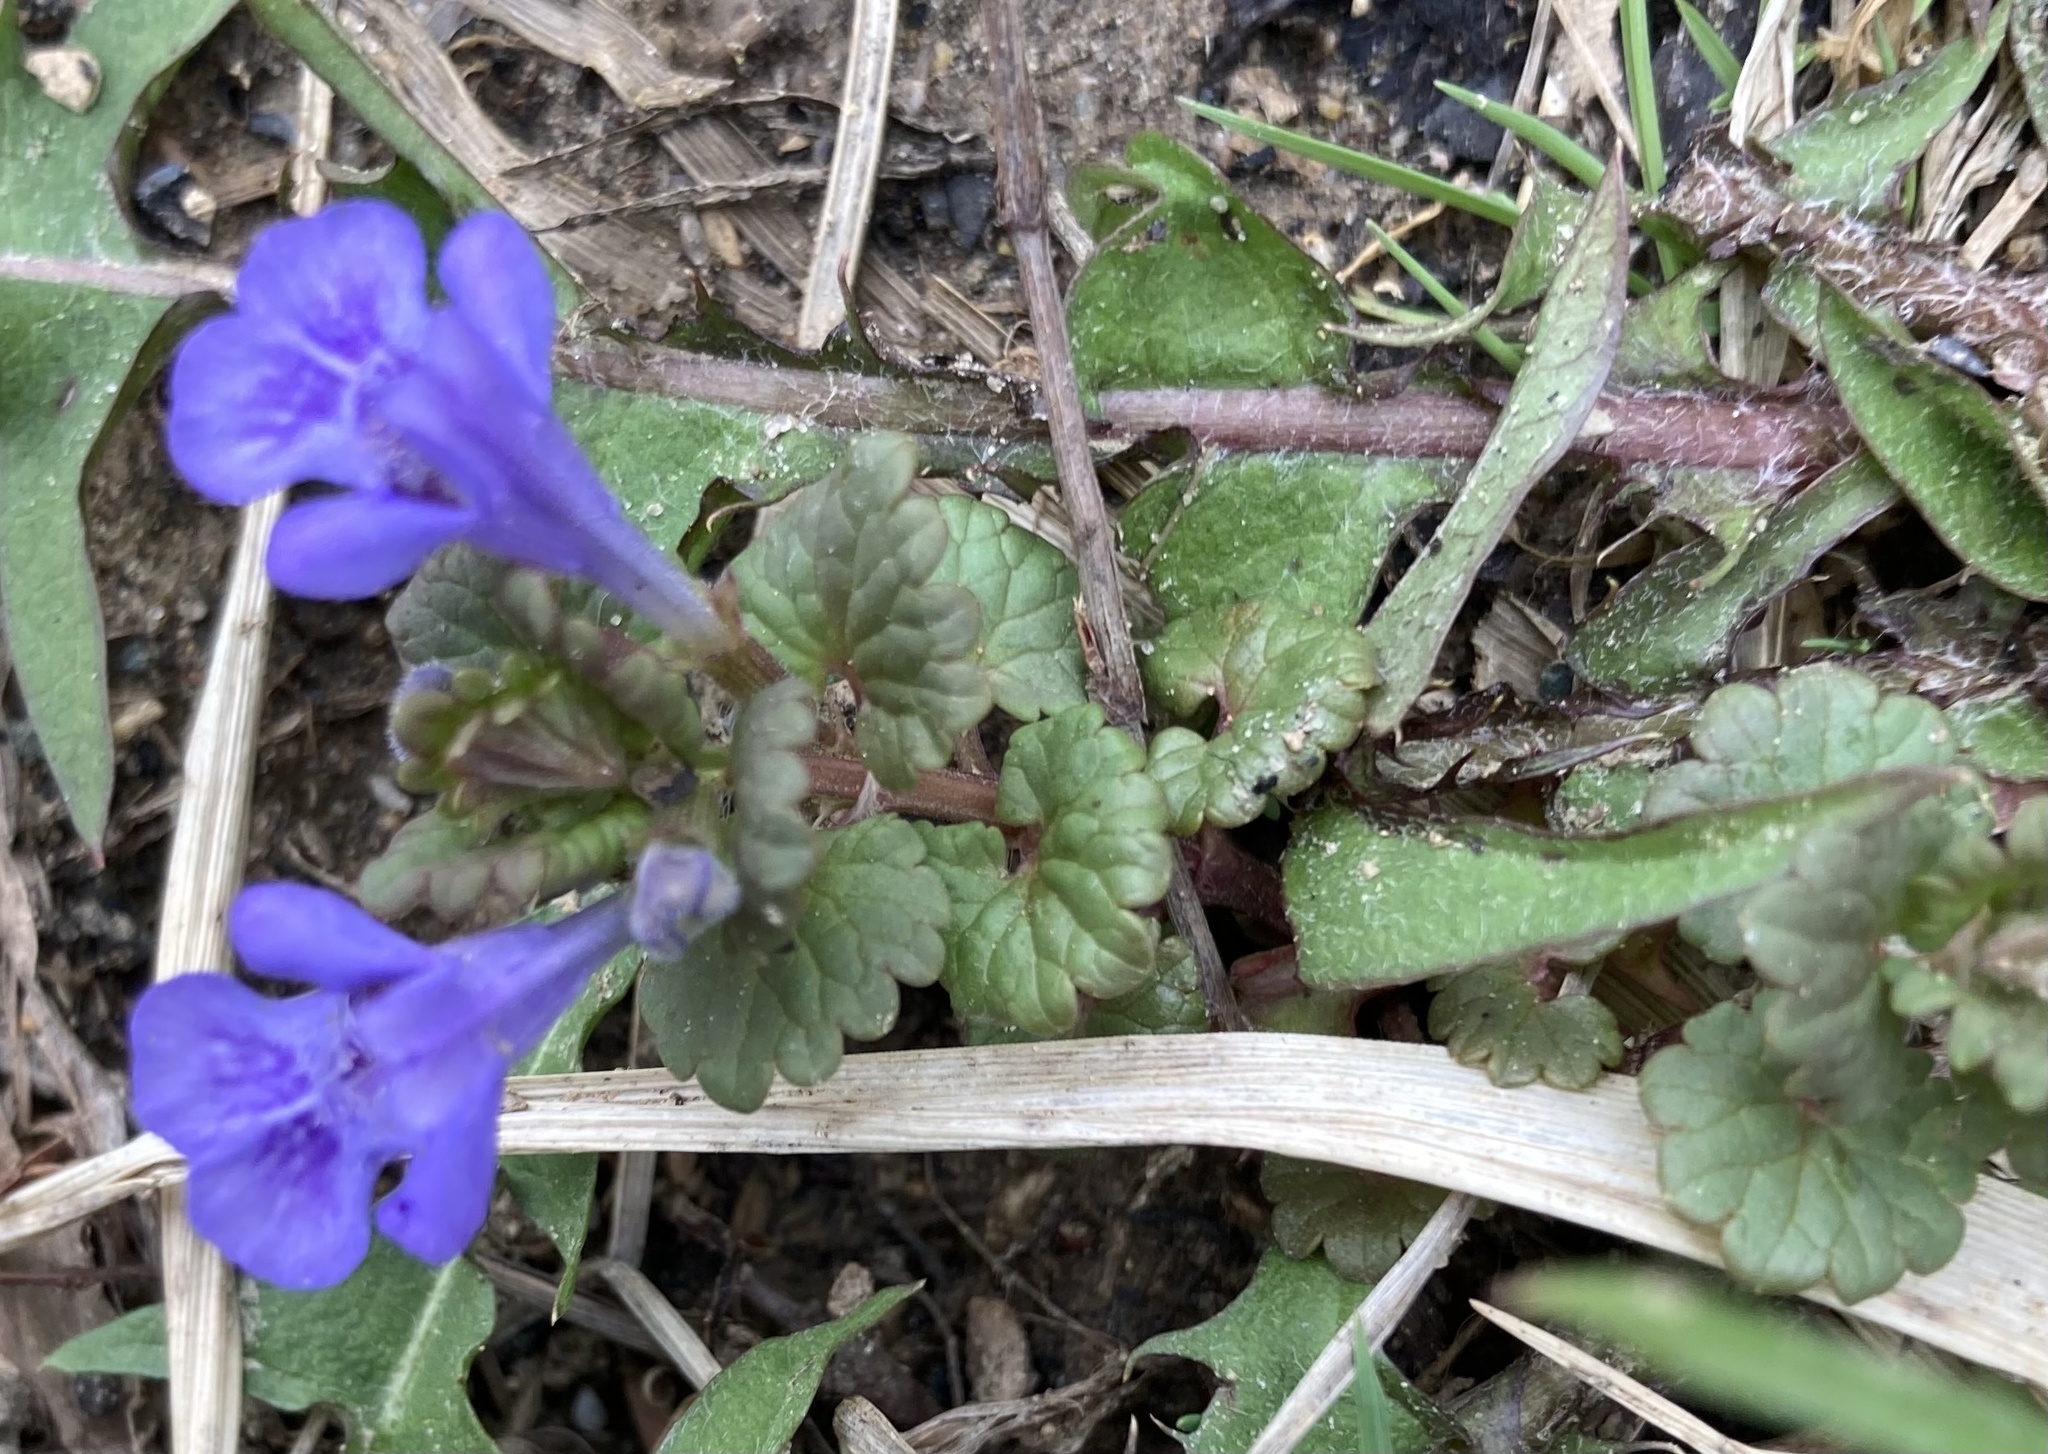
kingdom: Plantae
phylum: Tracheophyta
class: Magnoliopsida
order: Lamiales
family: Lamiaceae
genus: Glechoma
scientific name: Glechoma hederacea
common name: Ground ivy
